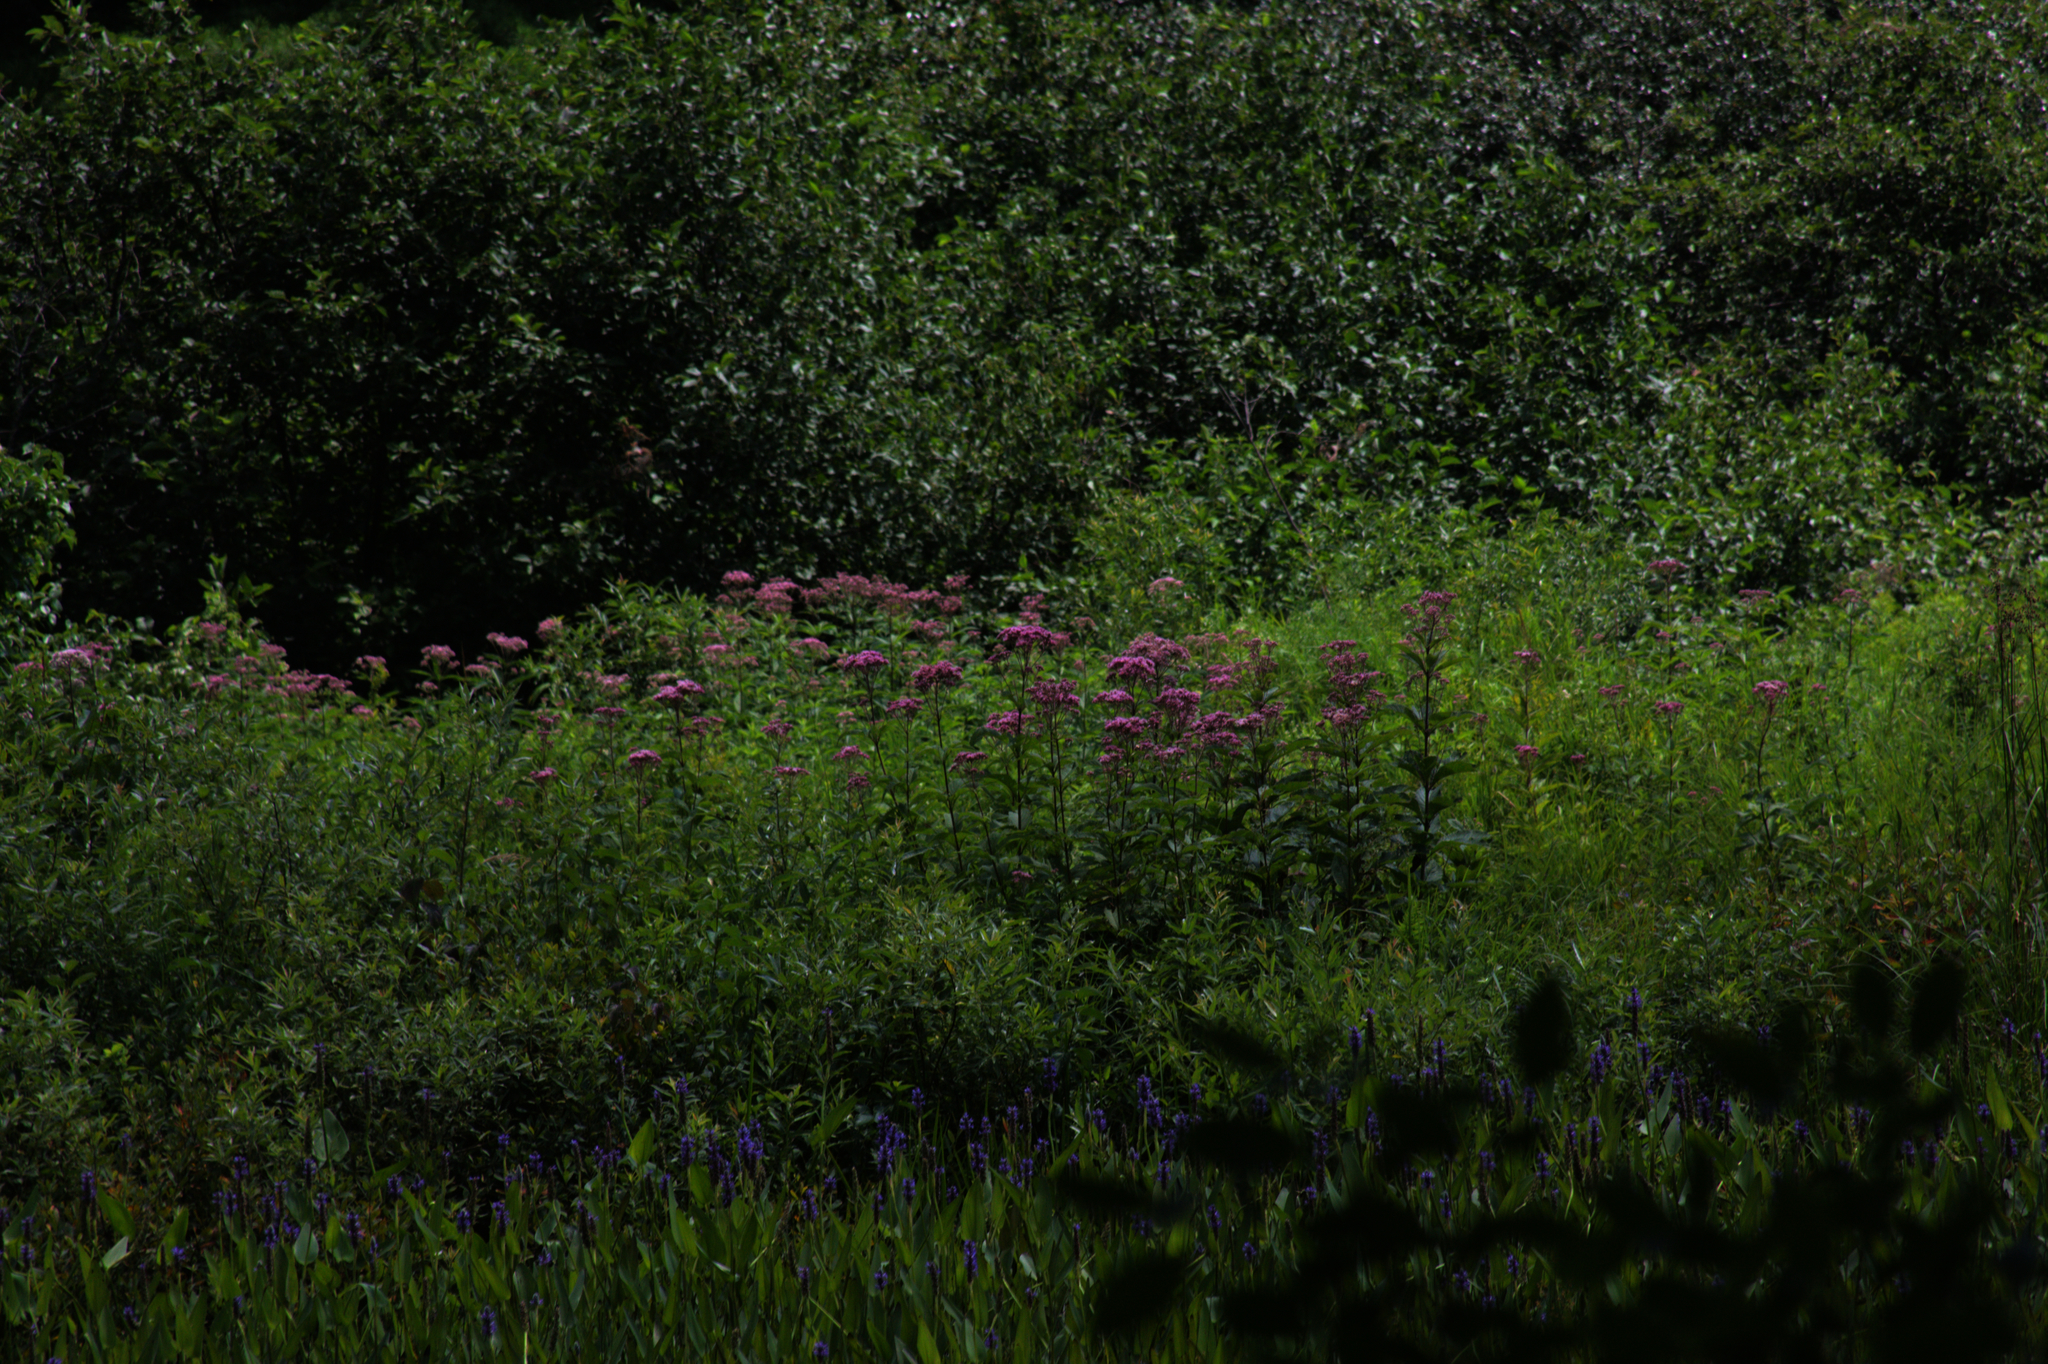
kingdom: Plantae
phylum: Tracheophyta
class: Magnoliopsida
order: Asterales
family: Asteraceae
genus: Eutrochium
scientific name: Eutrochium maculatum
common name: Spotted joe pye weed
